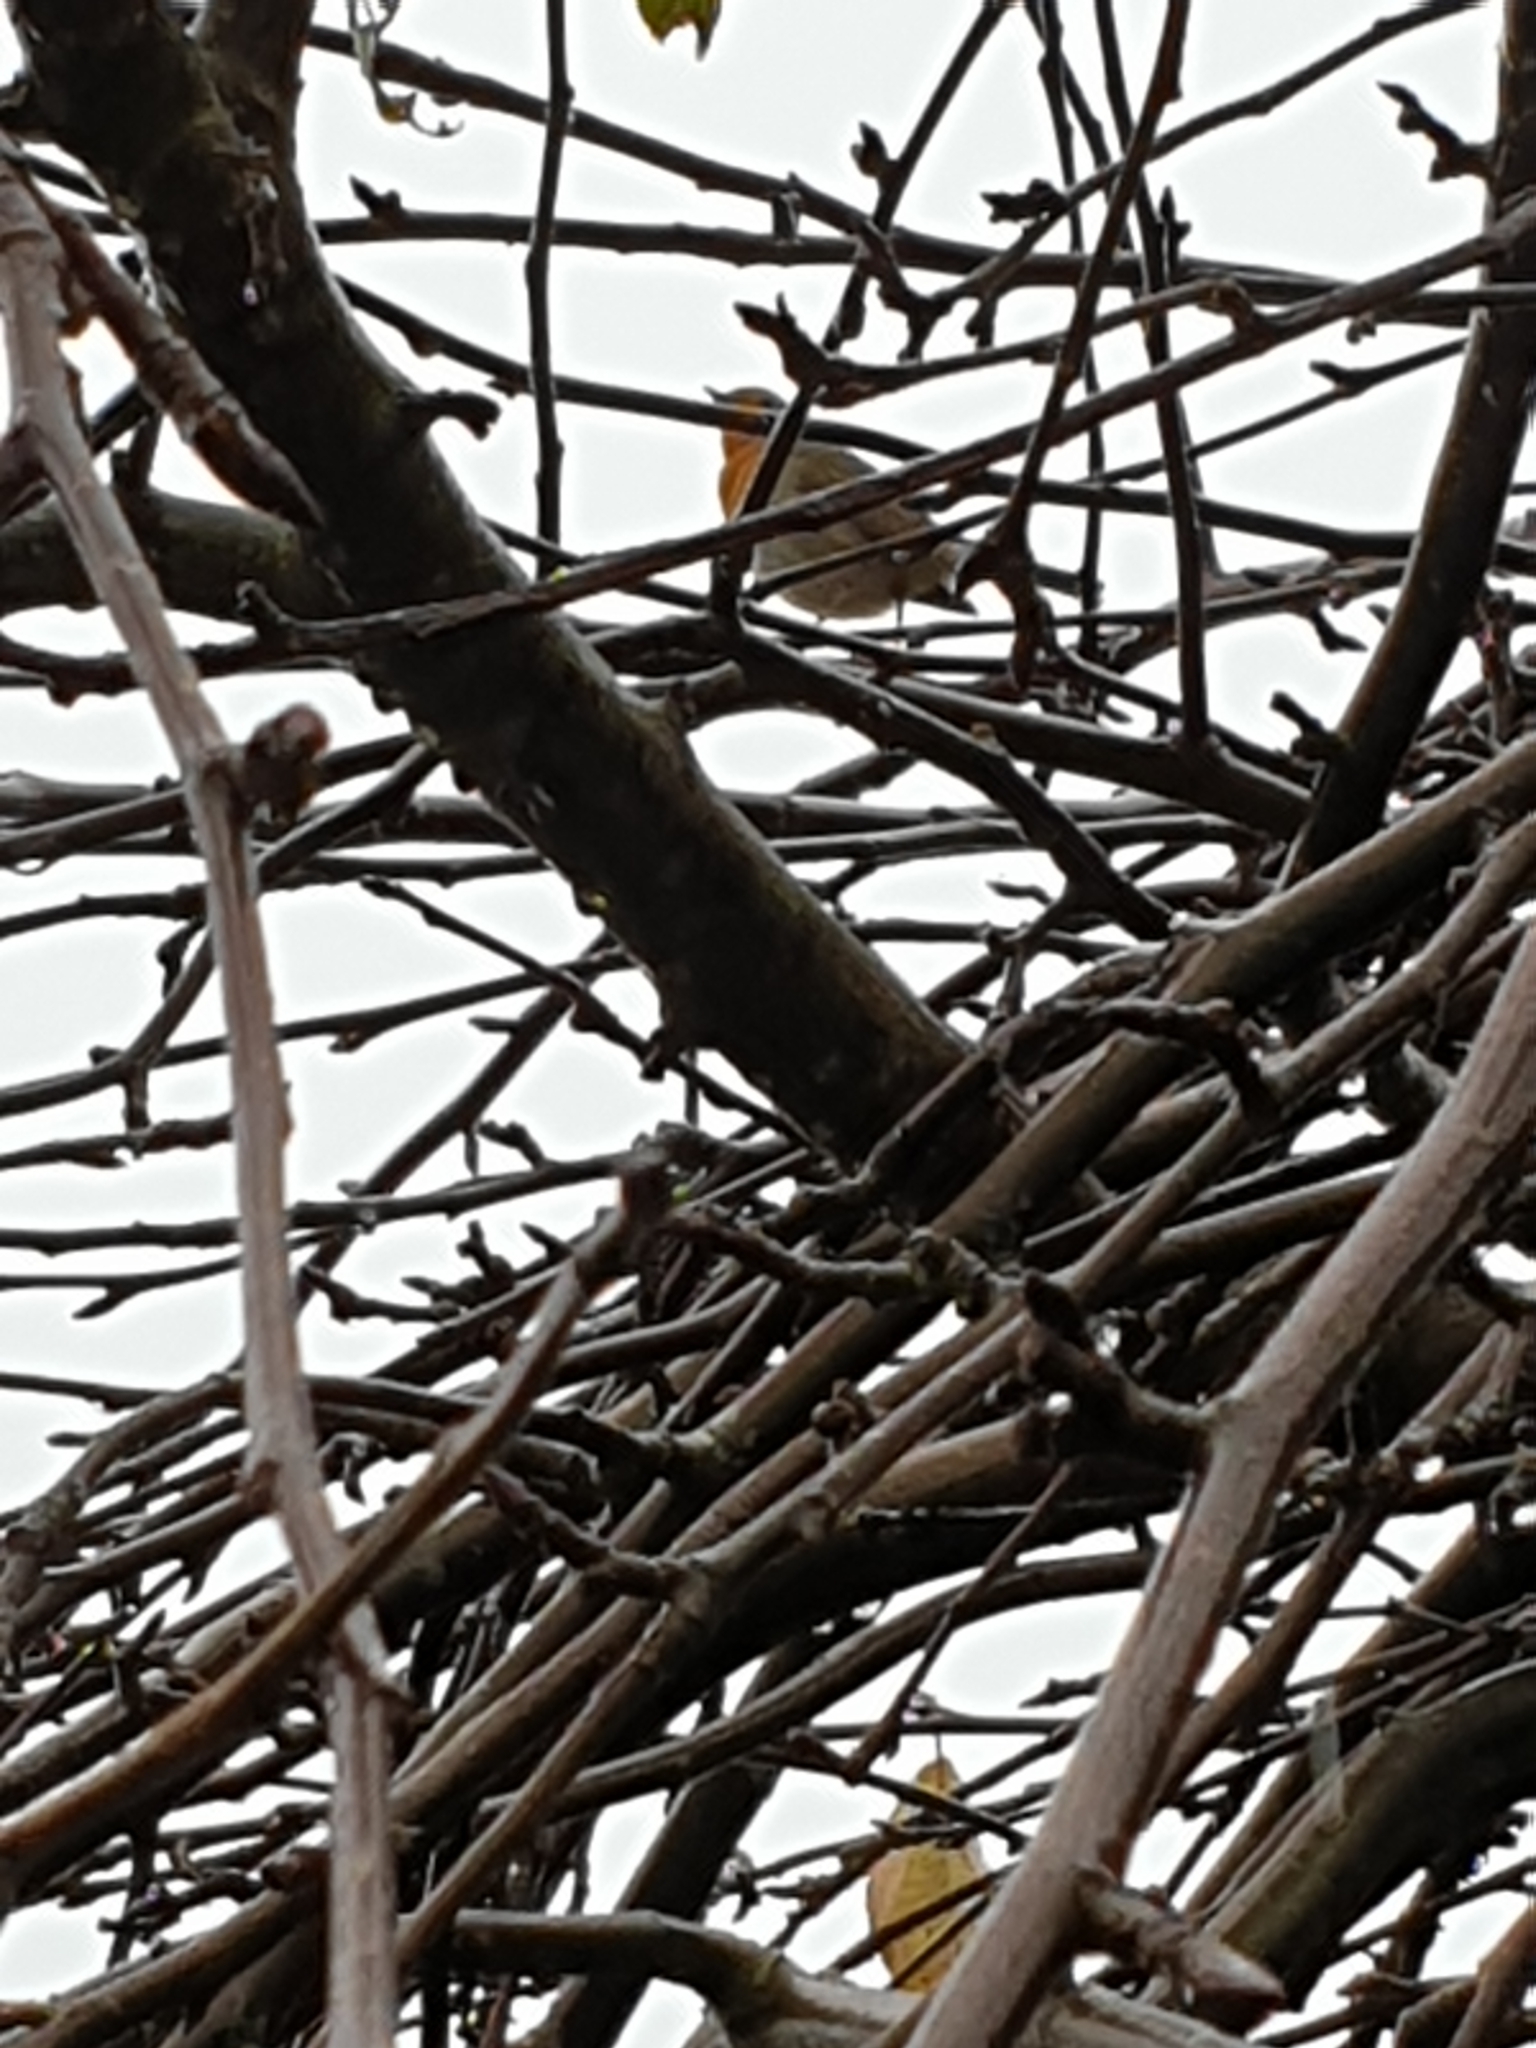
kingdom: Animalia
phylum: Chordata
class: Aves
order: Passeriformes
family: Muscicapidae
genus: Erithacus
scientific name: Erithacus rubecula
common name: European robin
